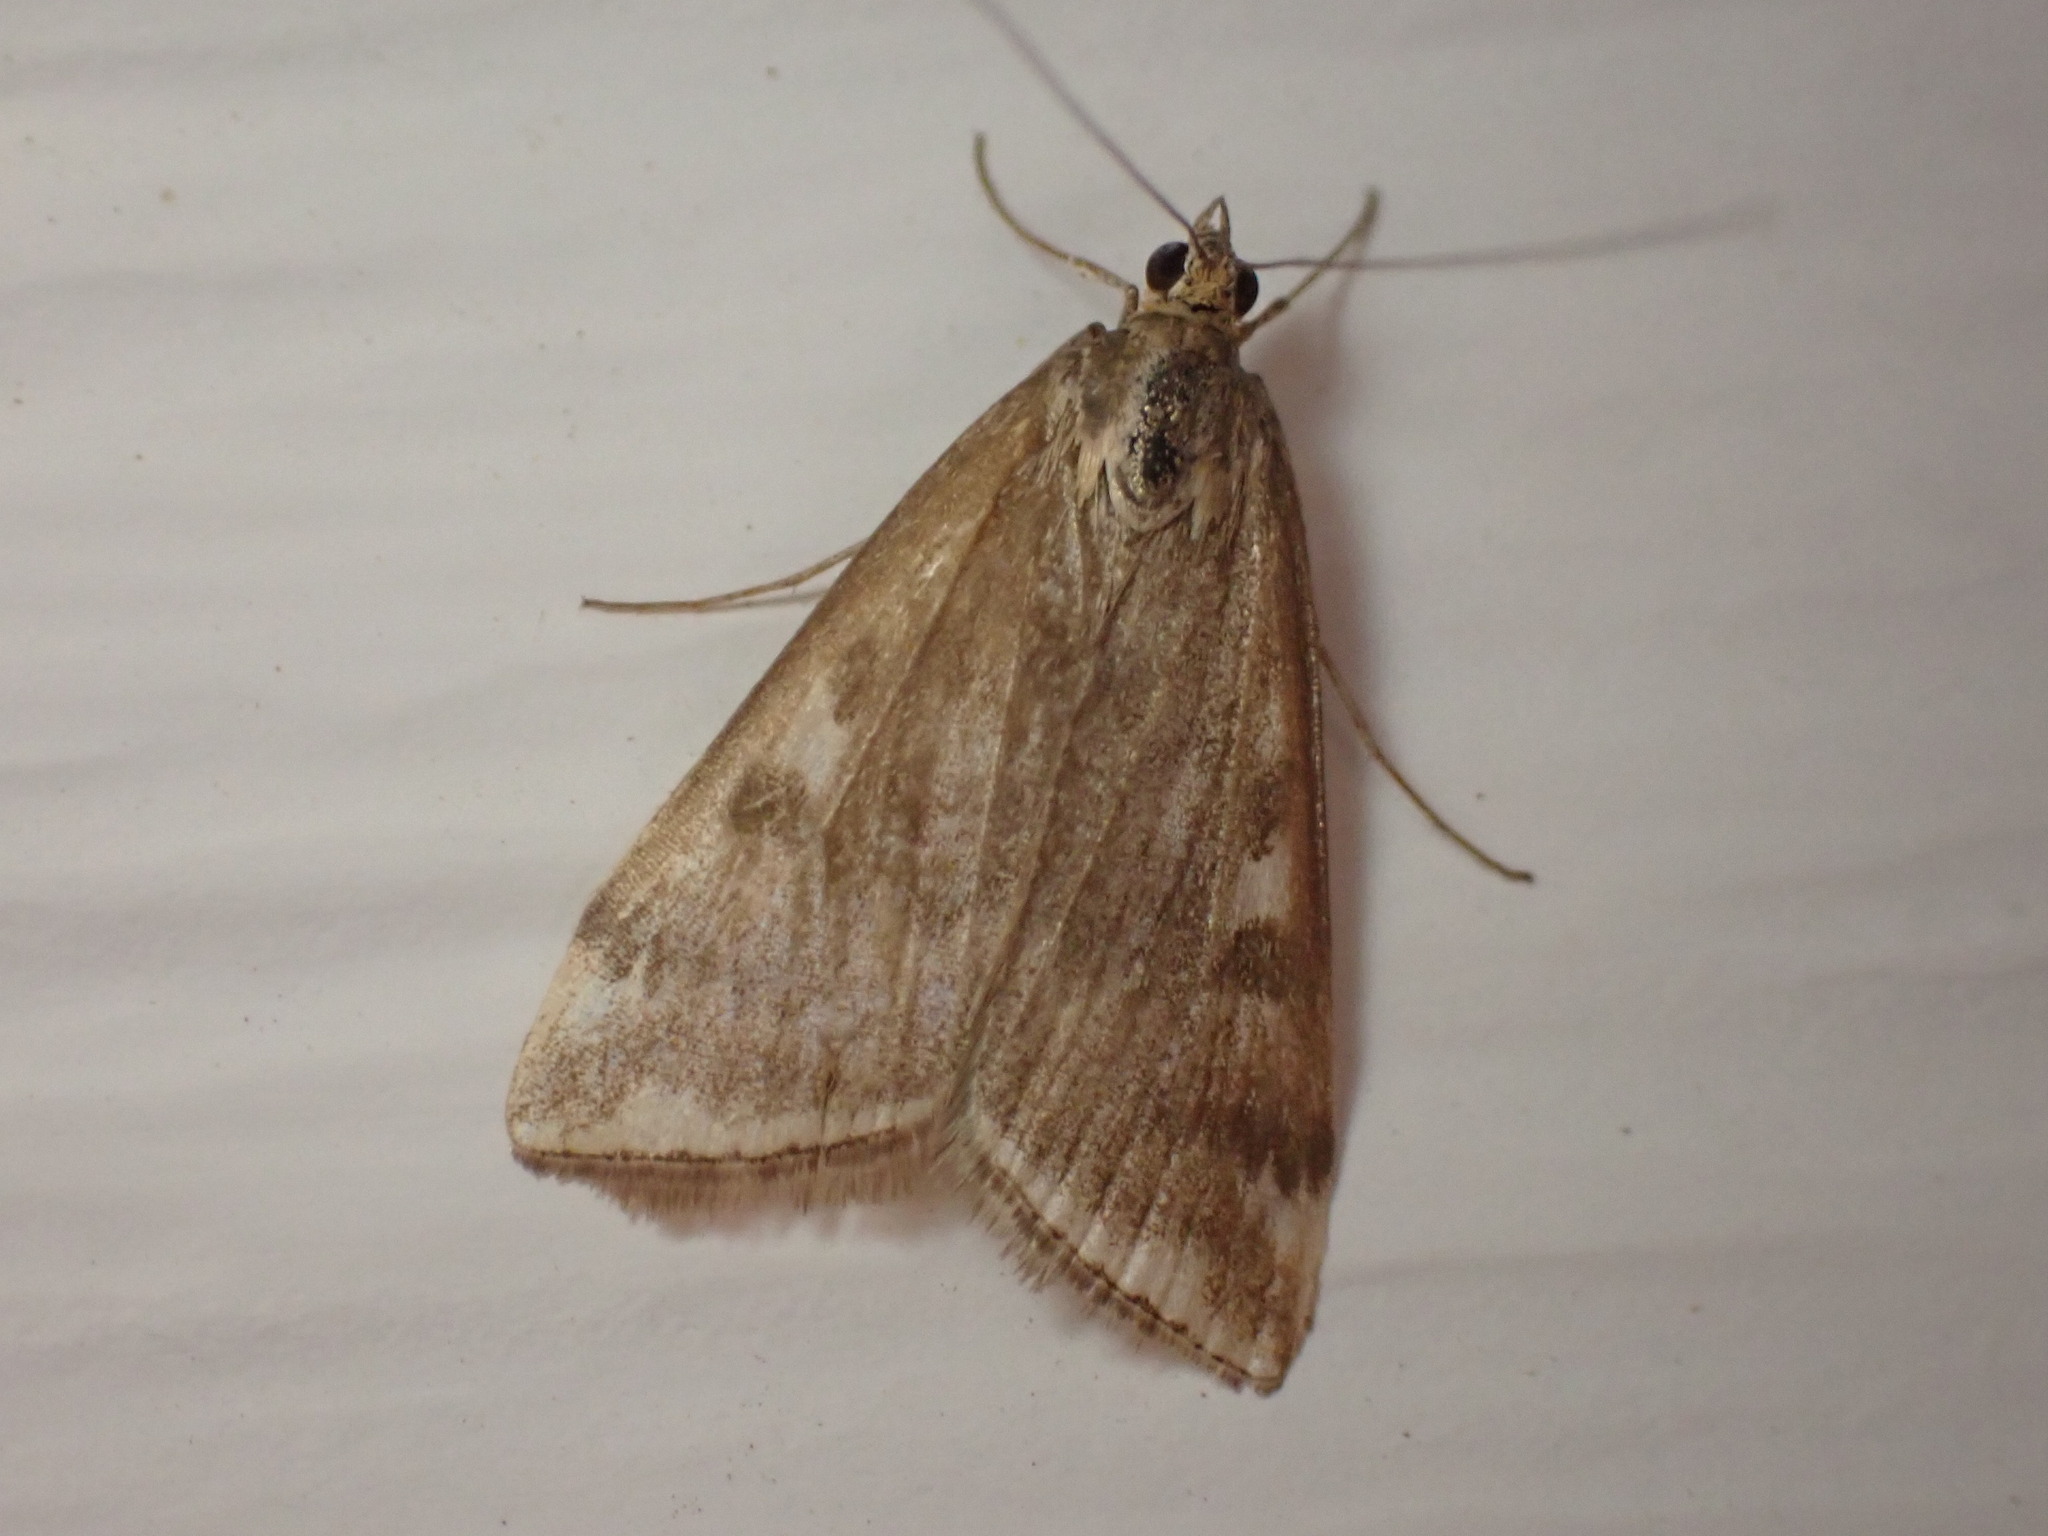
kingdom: Animalia
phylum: Arthropoda
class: Insecta
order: Lepidoptera
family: Crambidae
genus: Loxostege
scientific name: Loxostege
